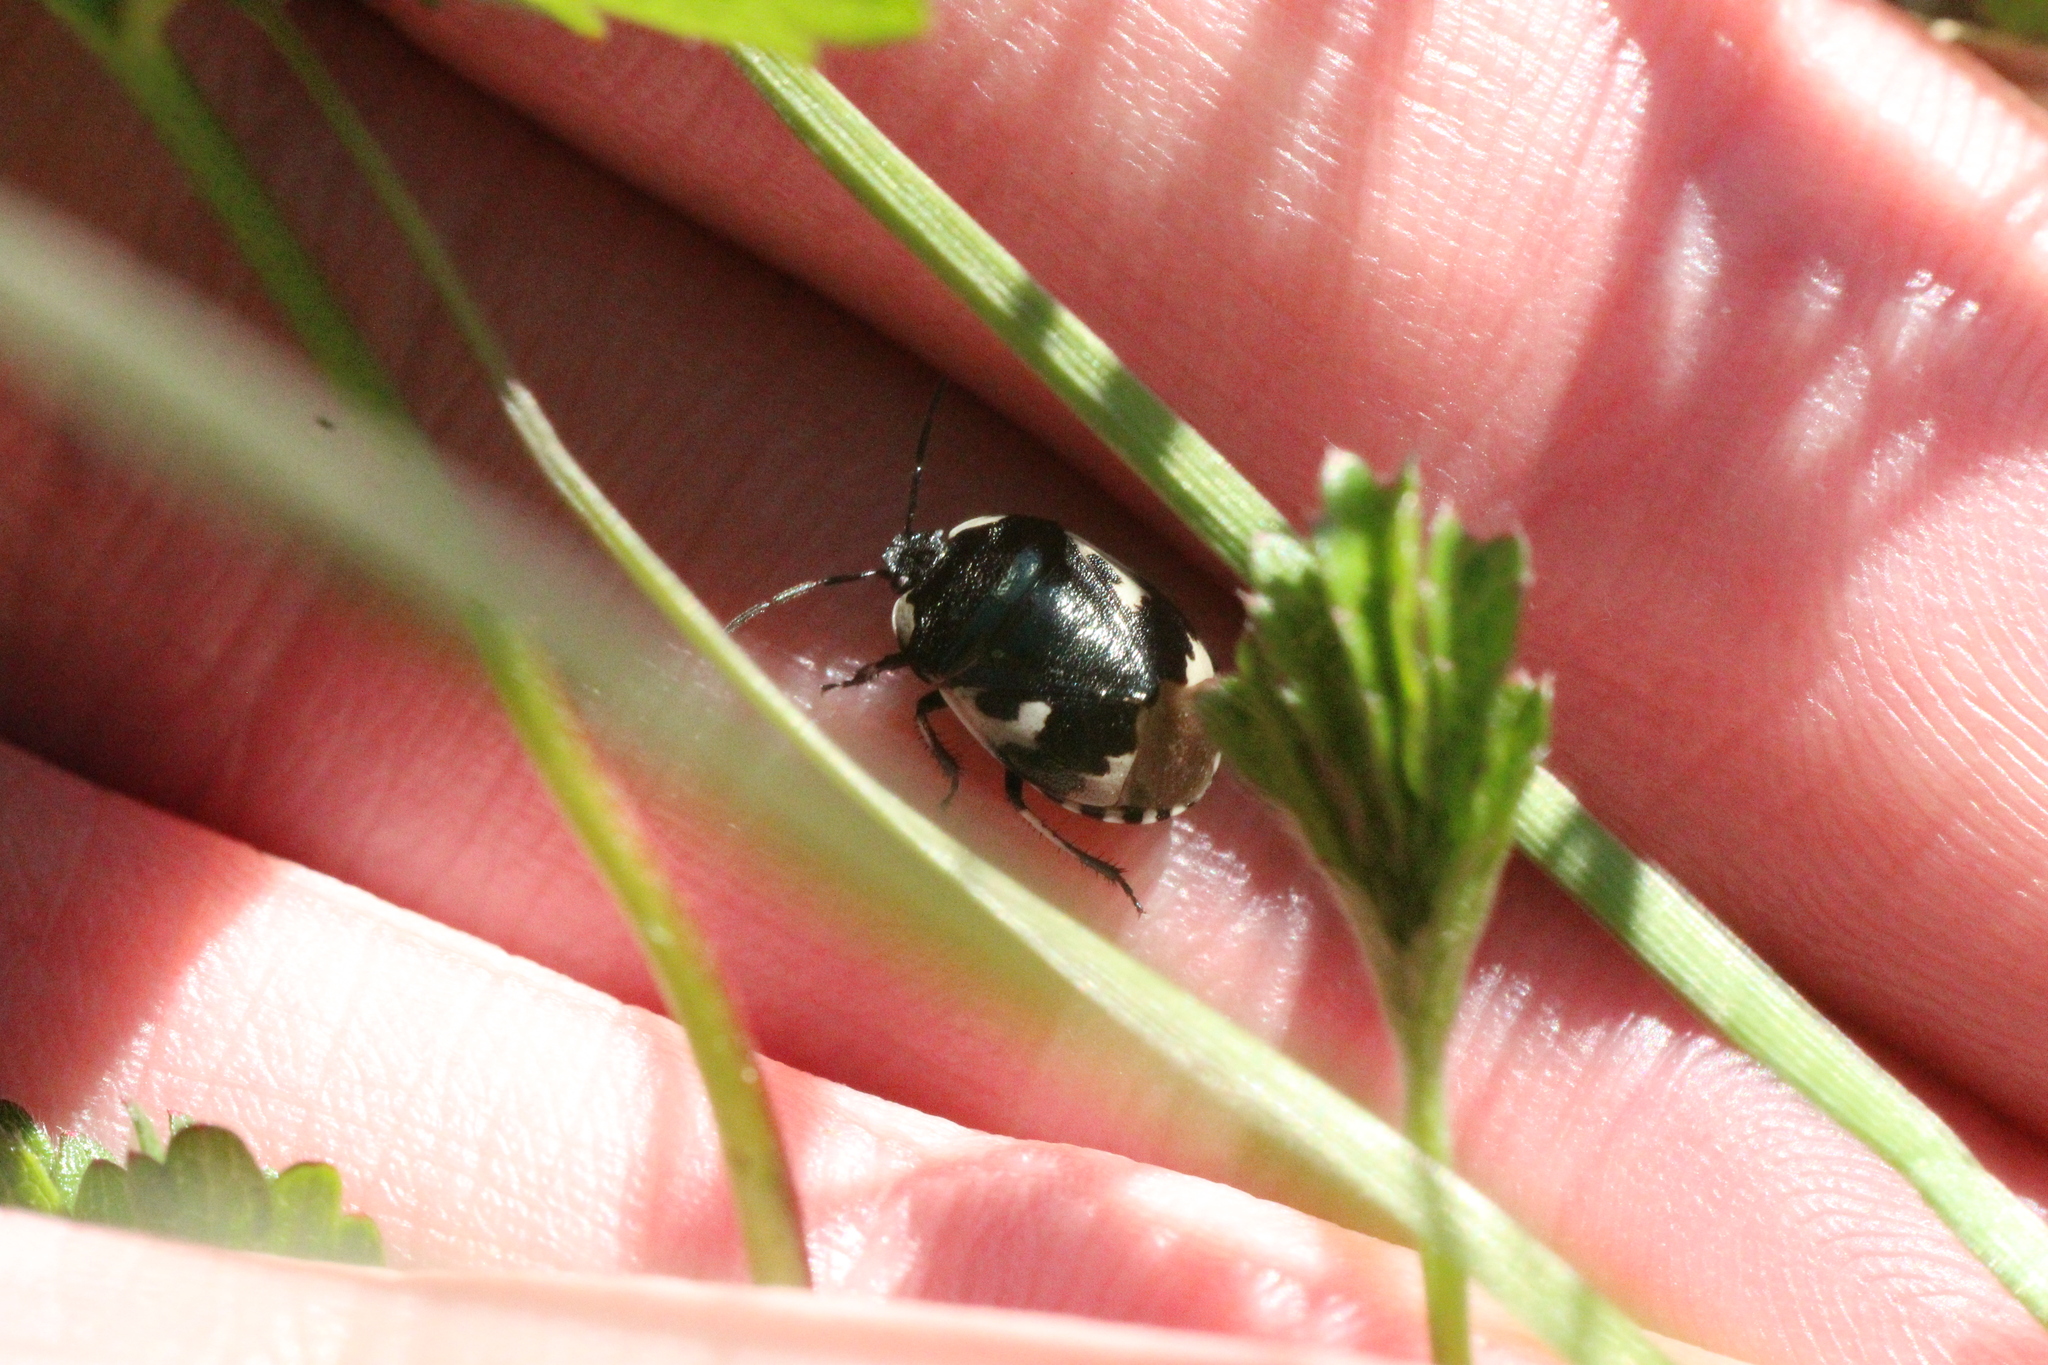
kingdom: Animalia
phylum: Arthropoda
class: Insecta
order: Hemiptera
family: Cydnidae
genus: Tritomegas
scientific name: Tritomegas bicolor
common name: Pied shieldbug
